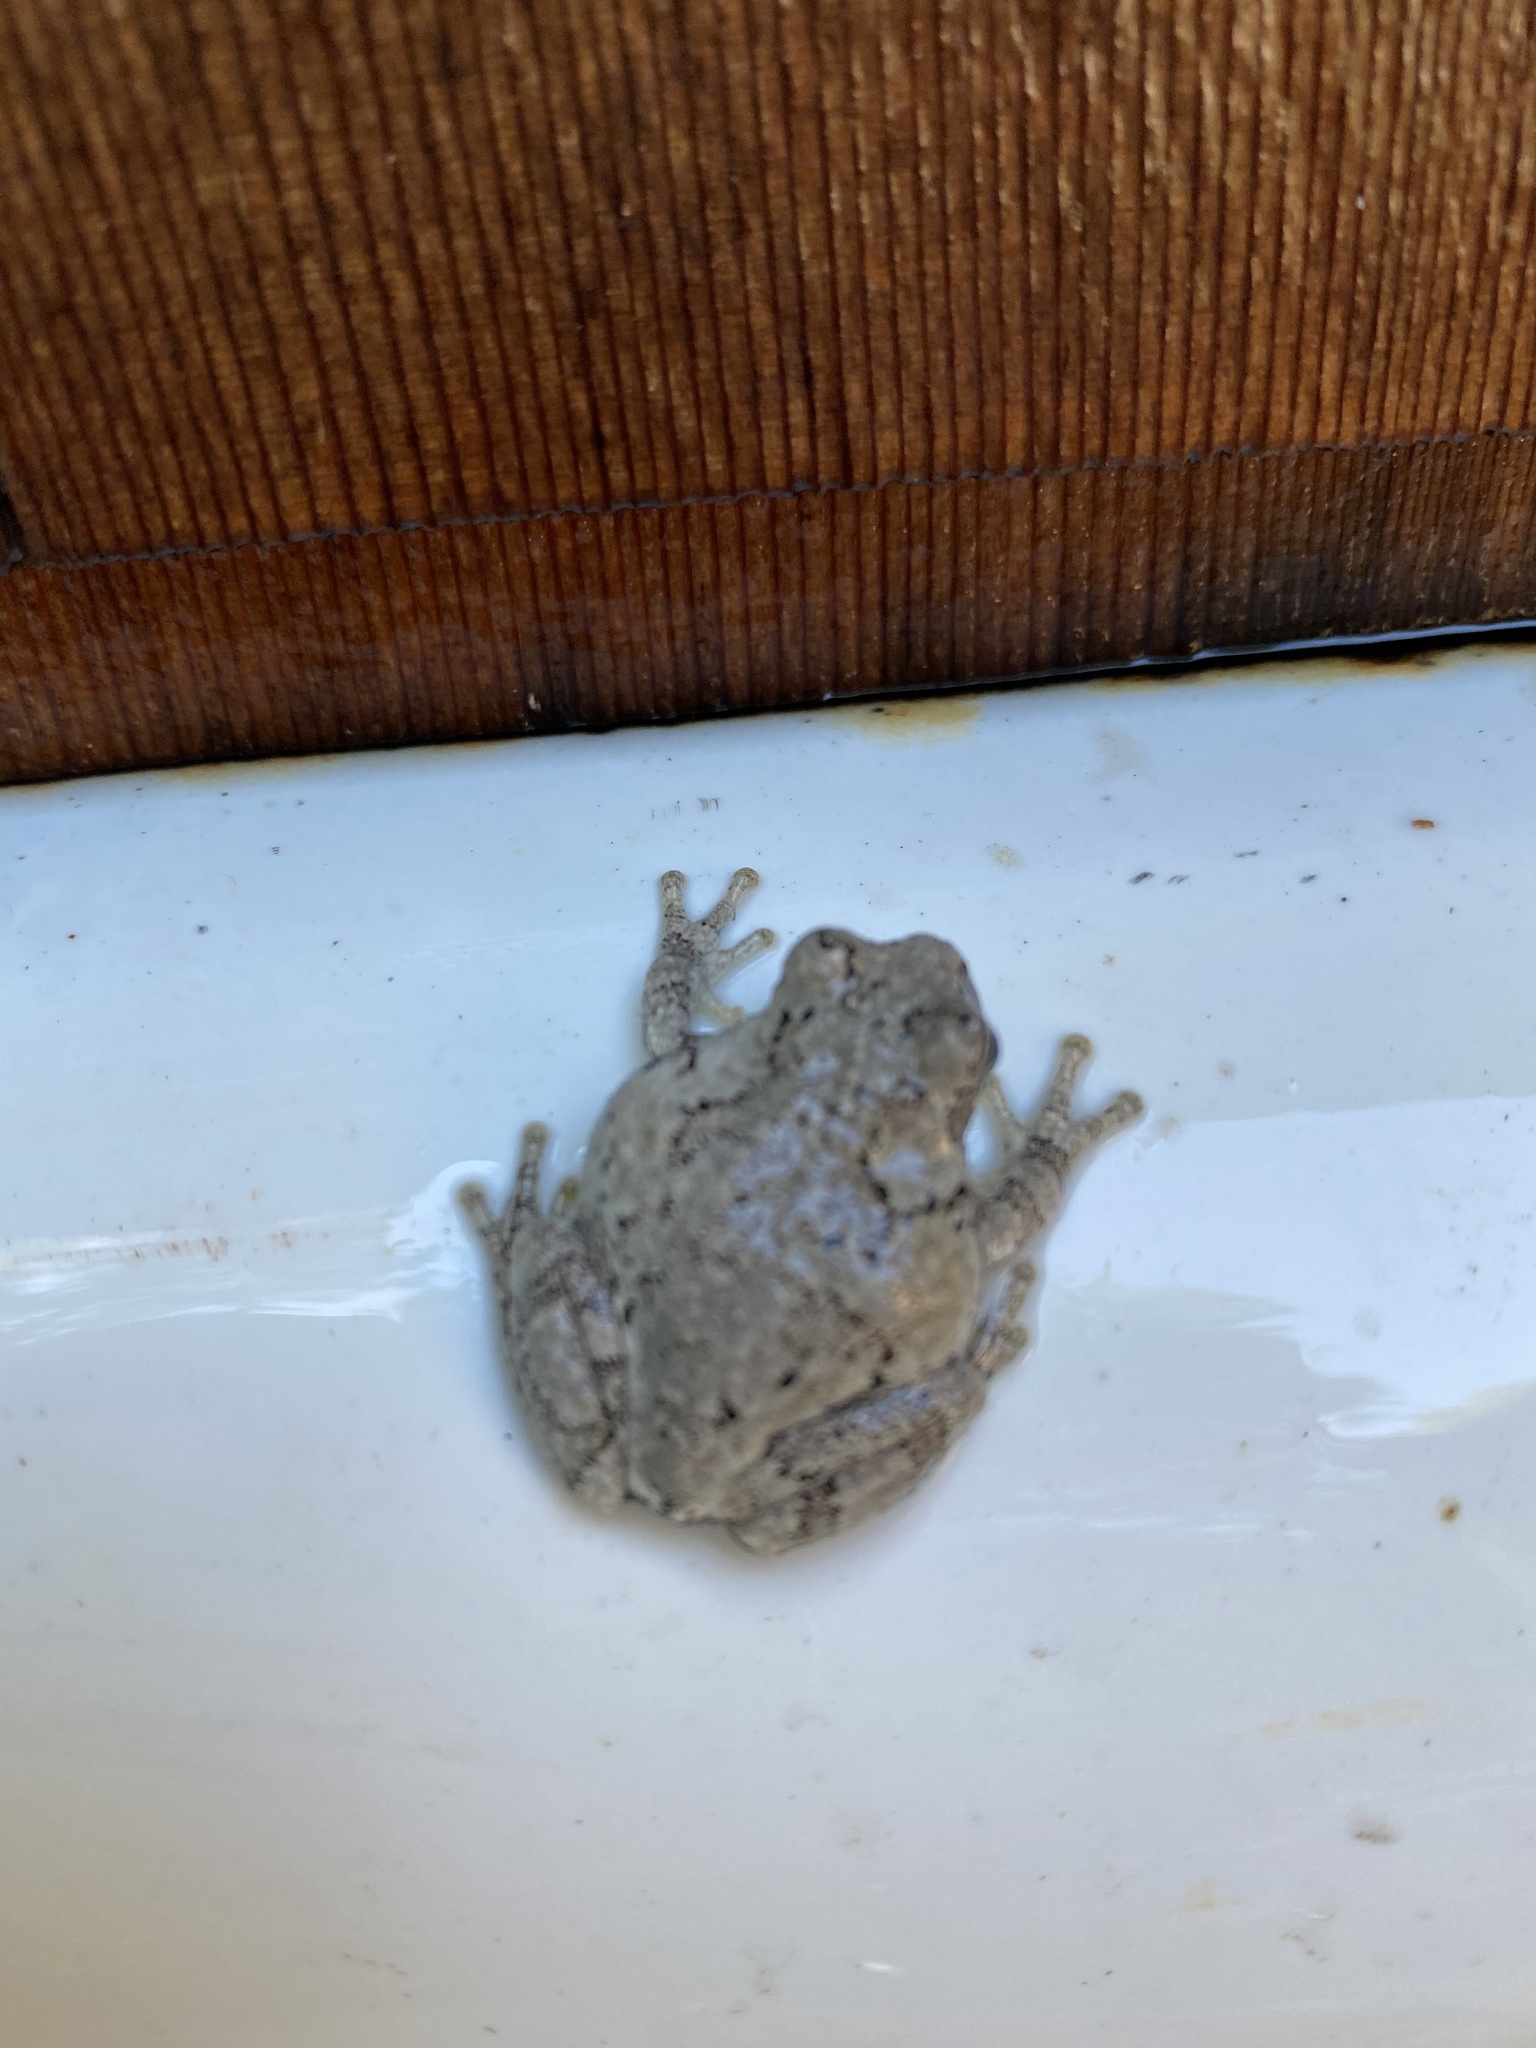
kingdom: Animalia
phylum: Chordata
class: Amphibia
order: Anura
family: Hylidae
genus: Dryophytes
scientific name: Dryophytes versicolor
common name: Gray treefrog
